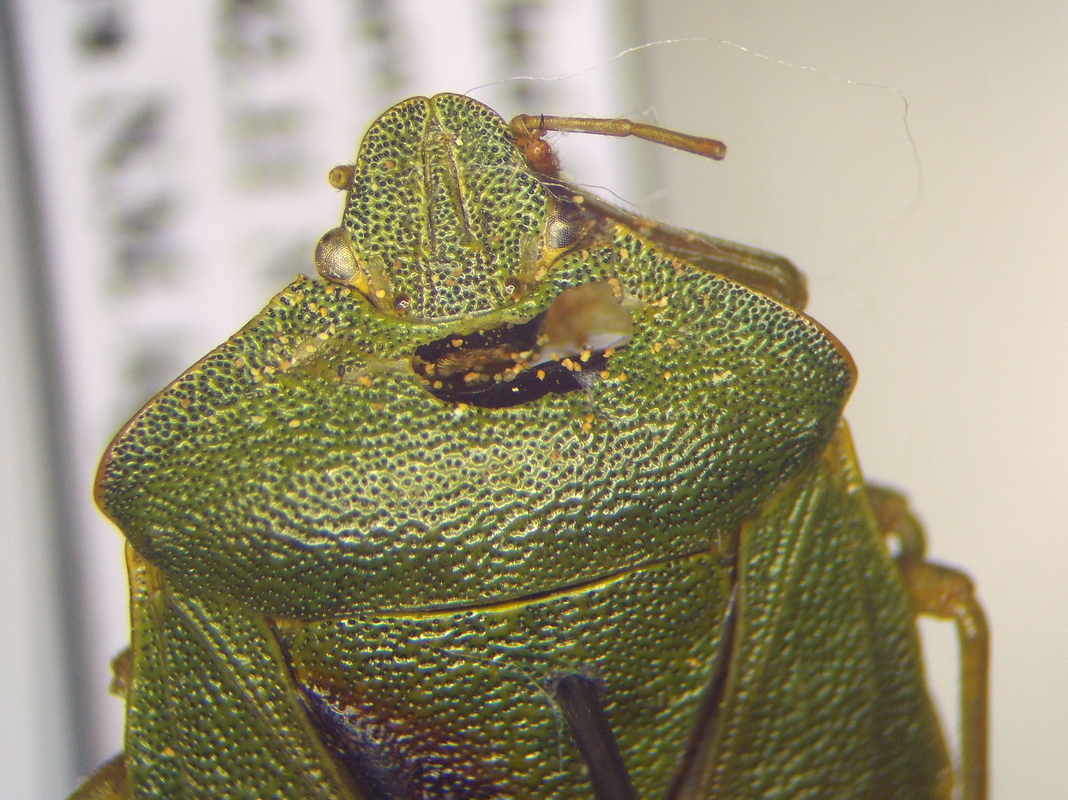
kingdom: Animalia
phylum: Arthropoda
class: Insecta
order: Hemiptera
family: Pentatomidae
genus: Palomena
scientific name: Palomena prasina
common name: Green shieldbug
